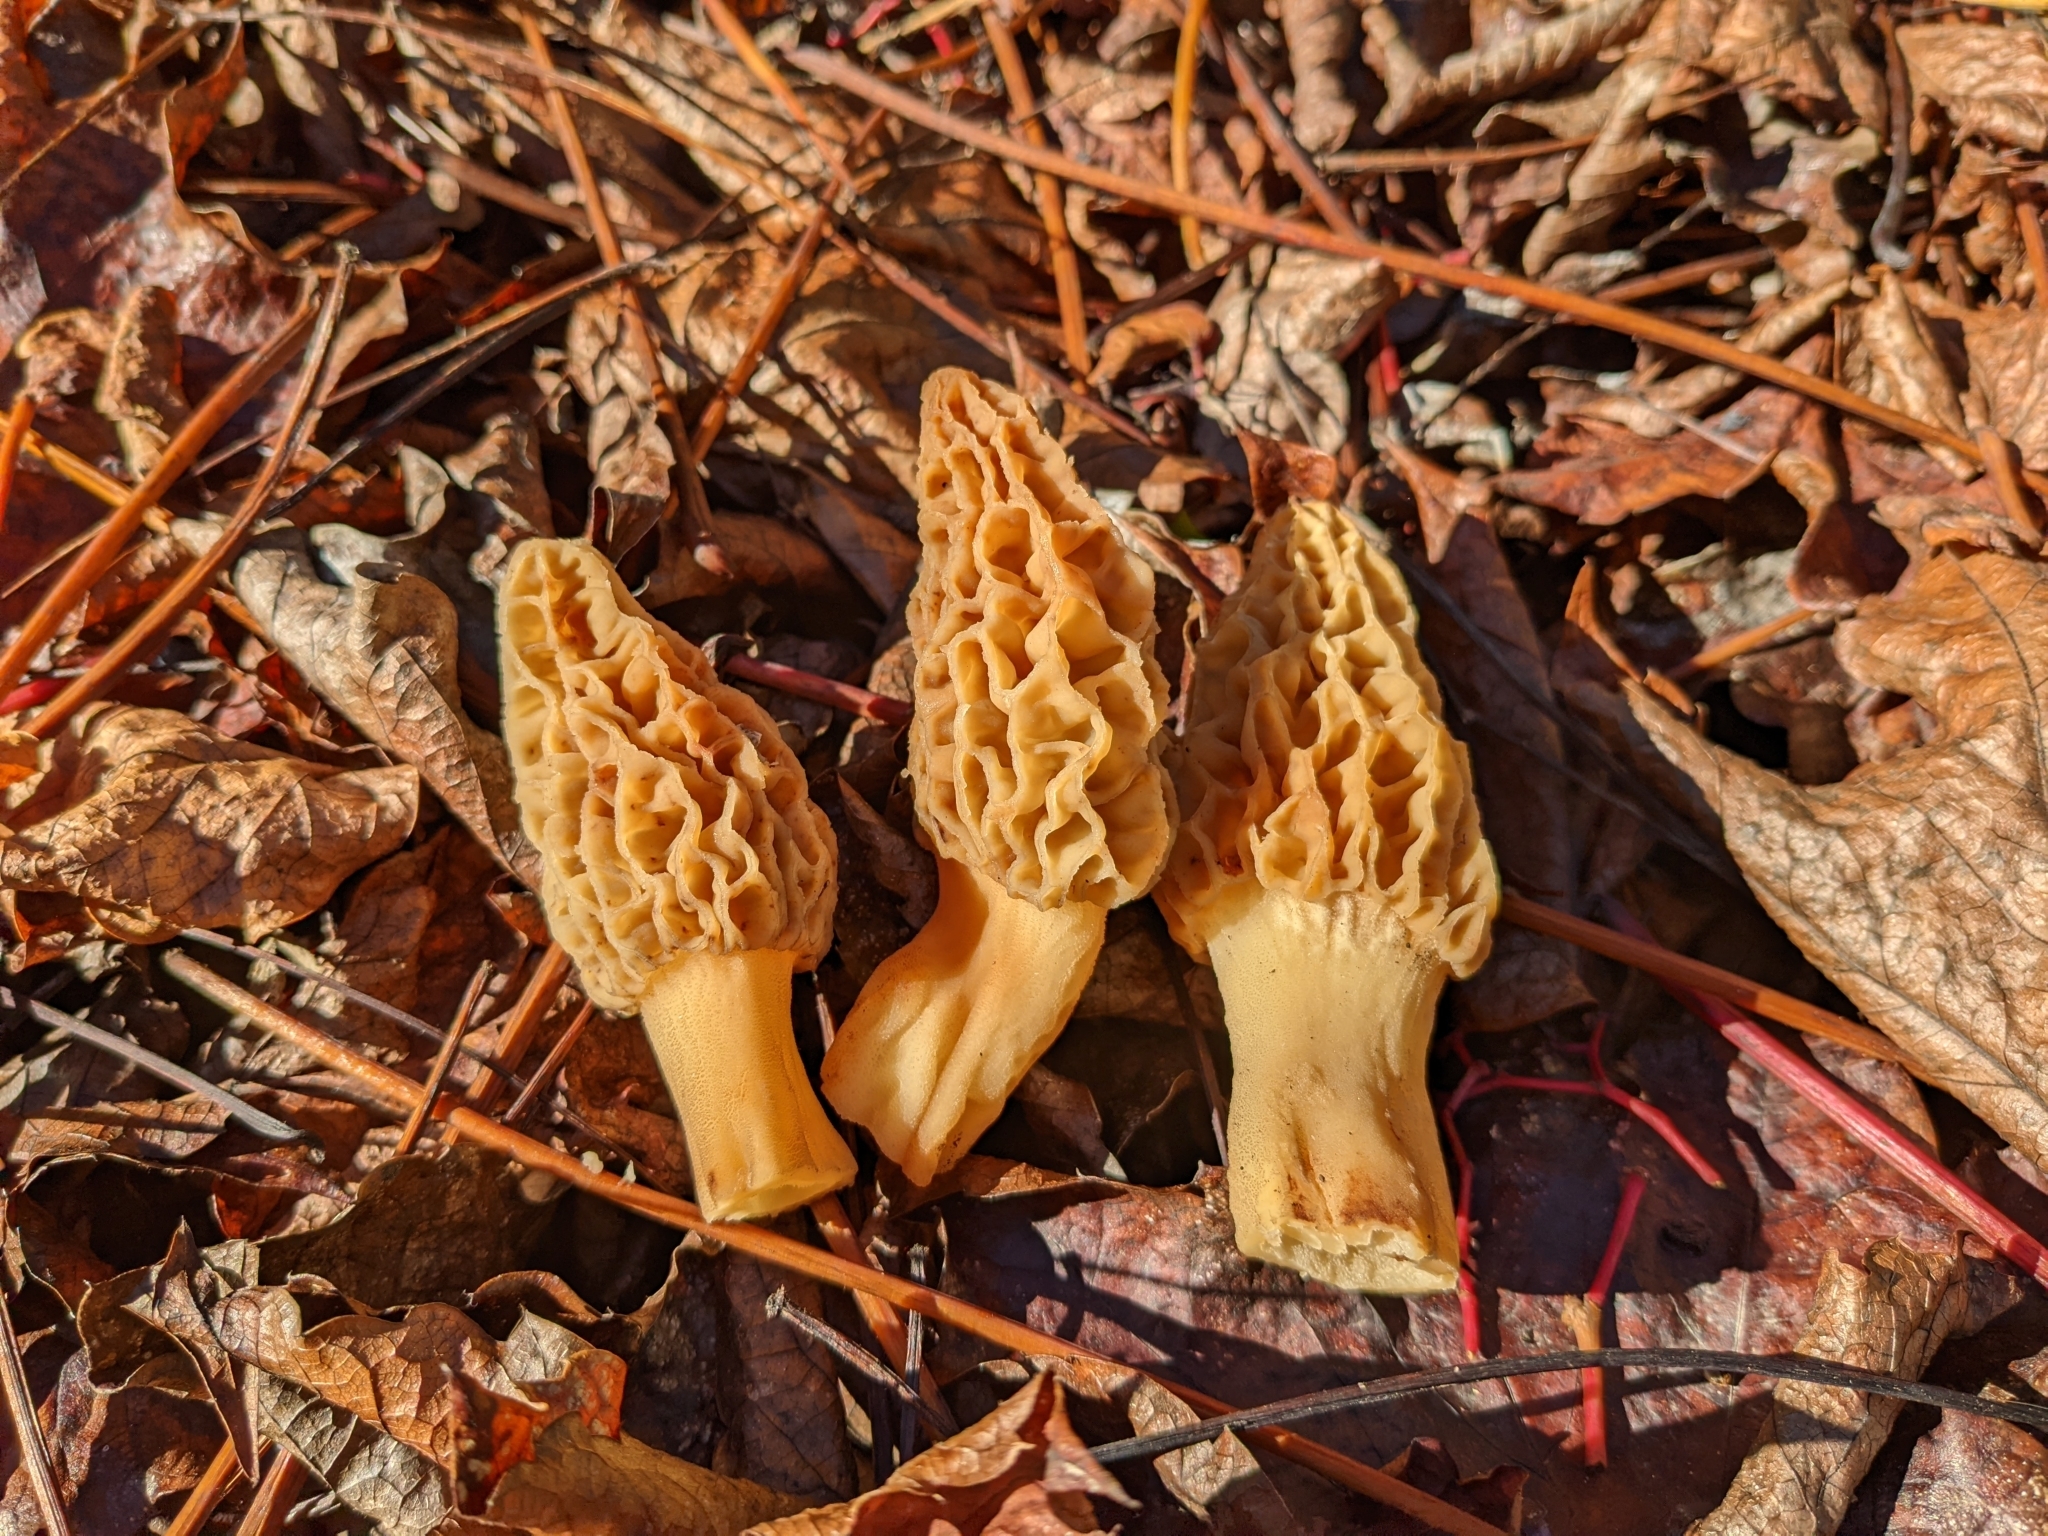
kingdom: Fungi
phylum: Ascomycota
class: Pezizomycetes
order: Pezizales
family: Morchellaceae
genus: Morchella
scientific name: Morchella rufobrunnea
